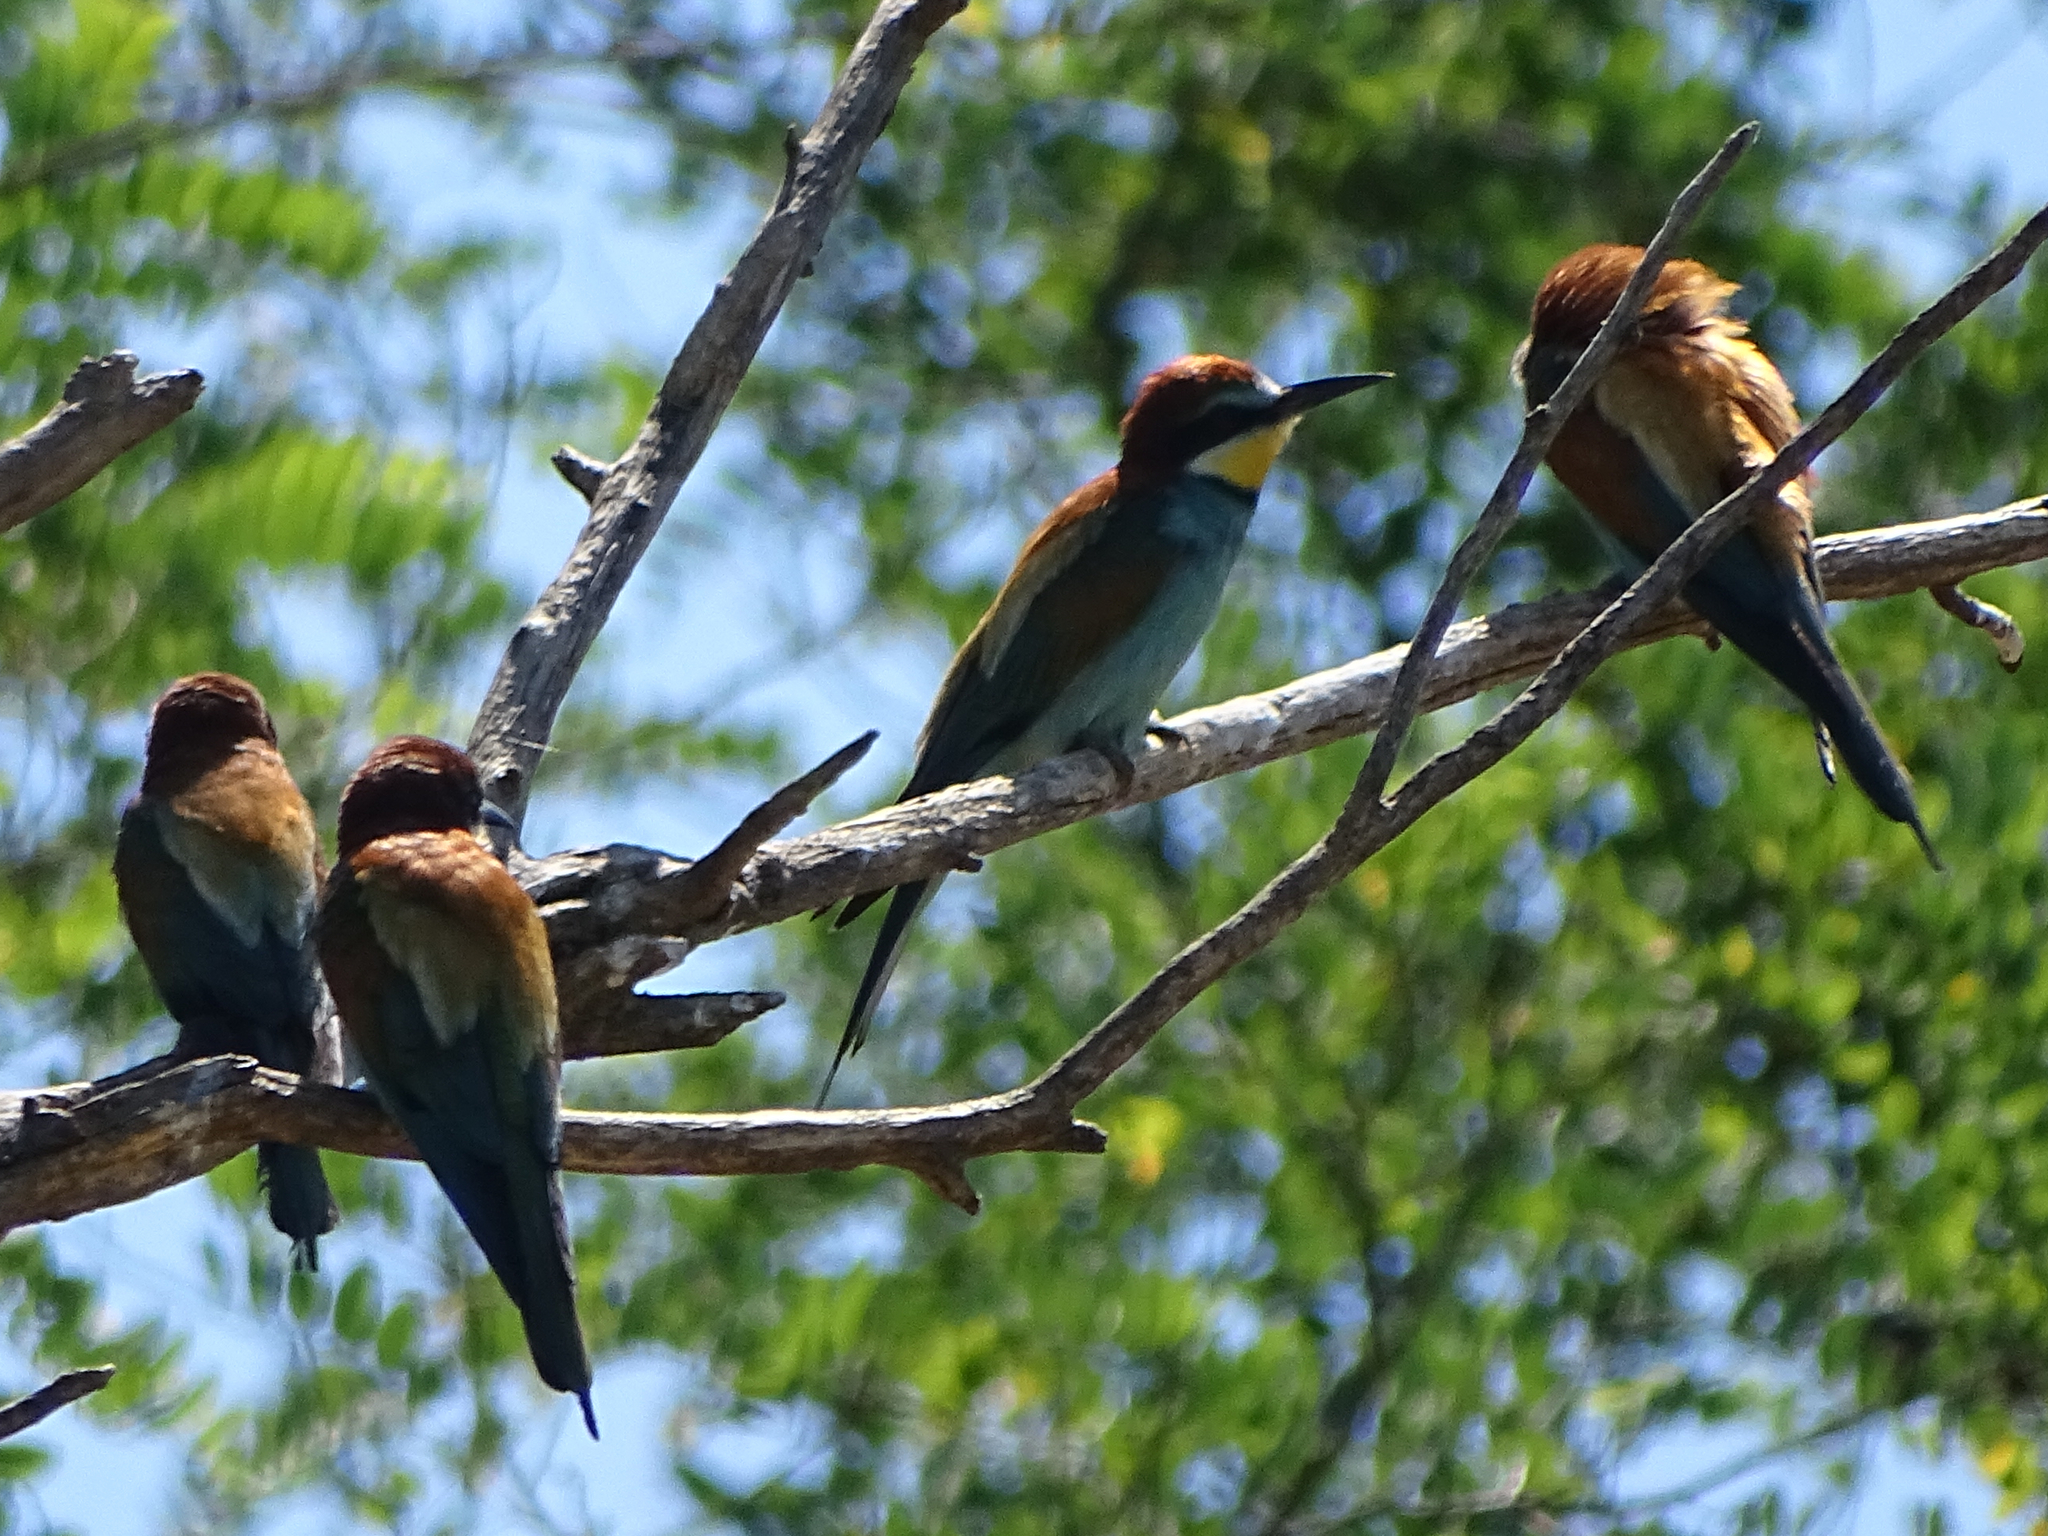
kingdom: Animalia
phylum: Chordata
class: Aves
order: Coraciiformes
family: Meropidae
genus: Merops
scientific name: Merops apiaster
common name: European bee-eater
